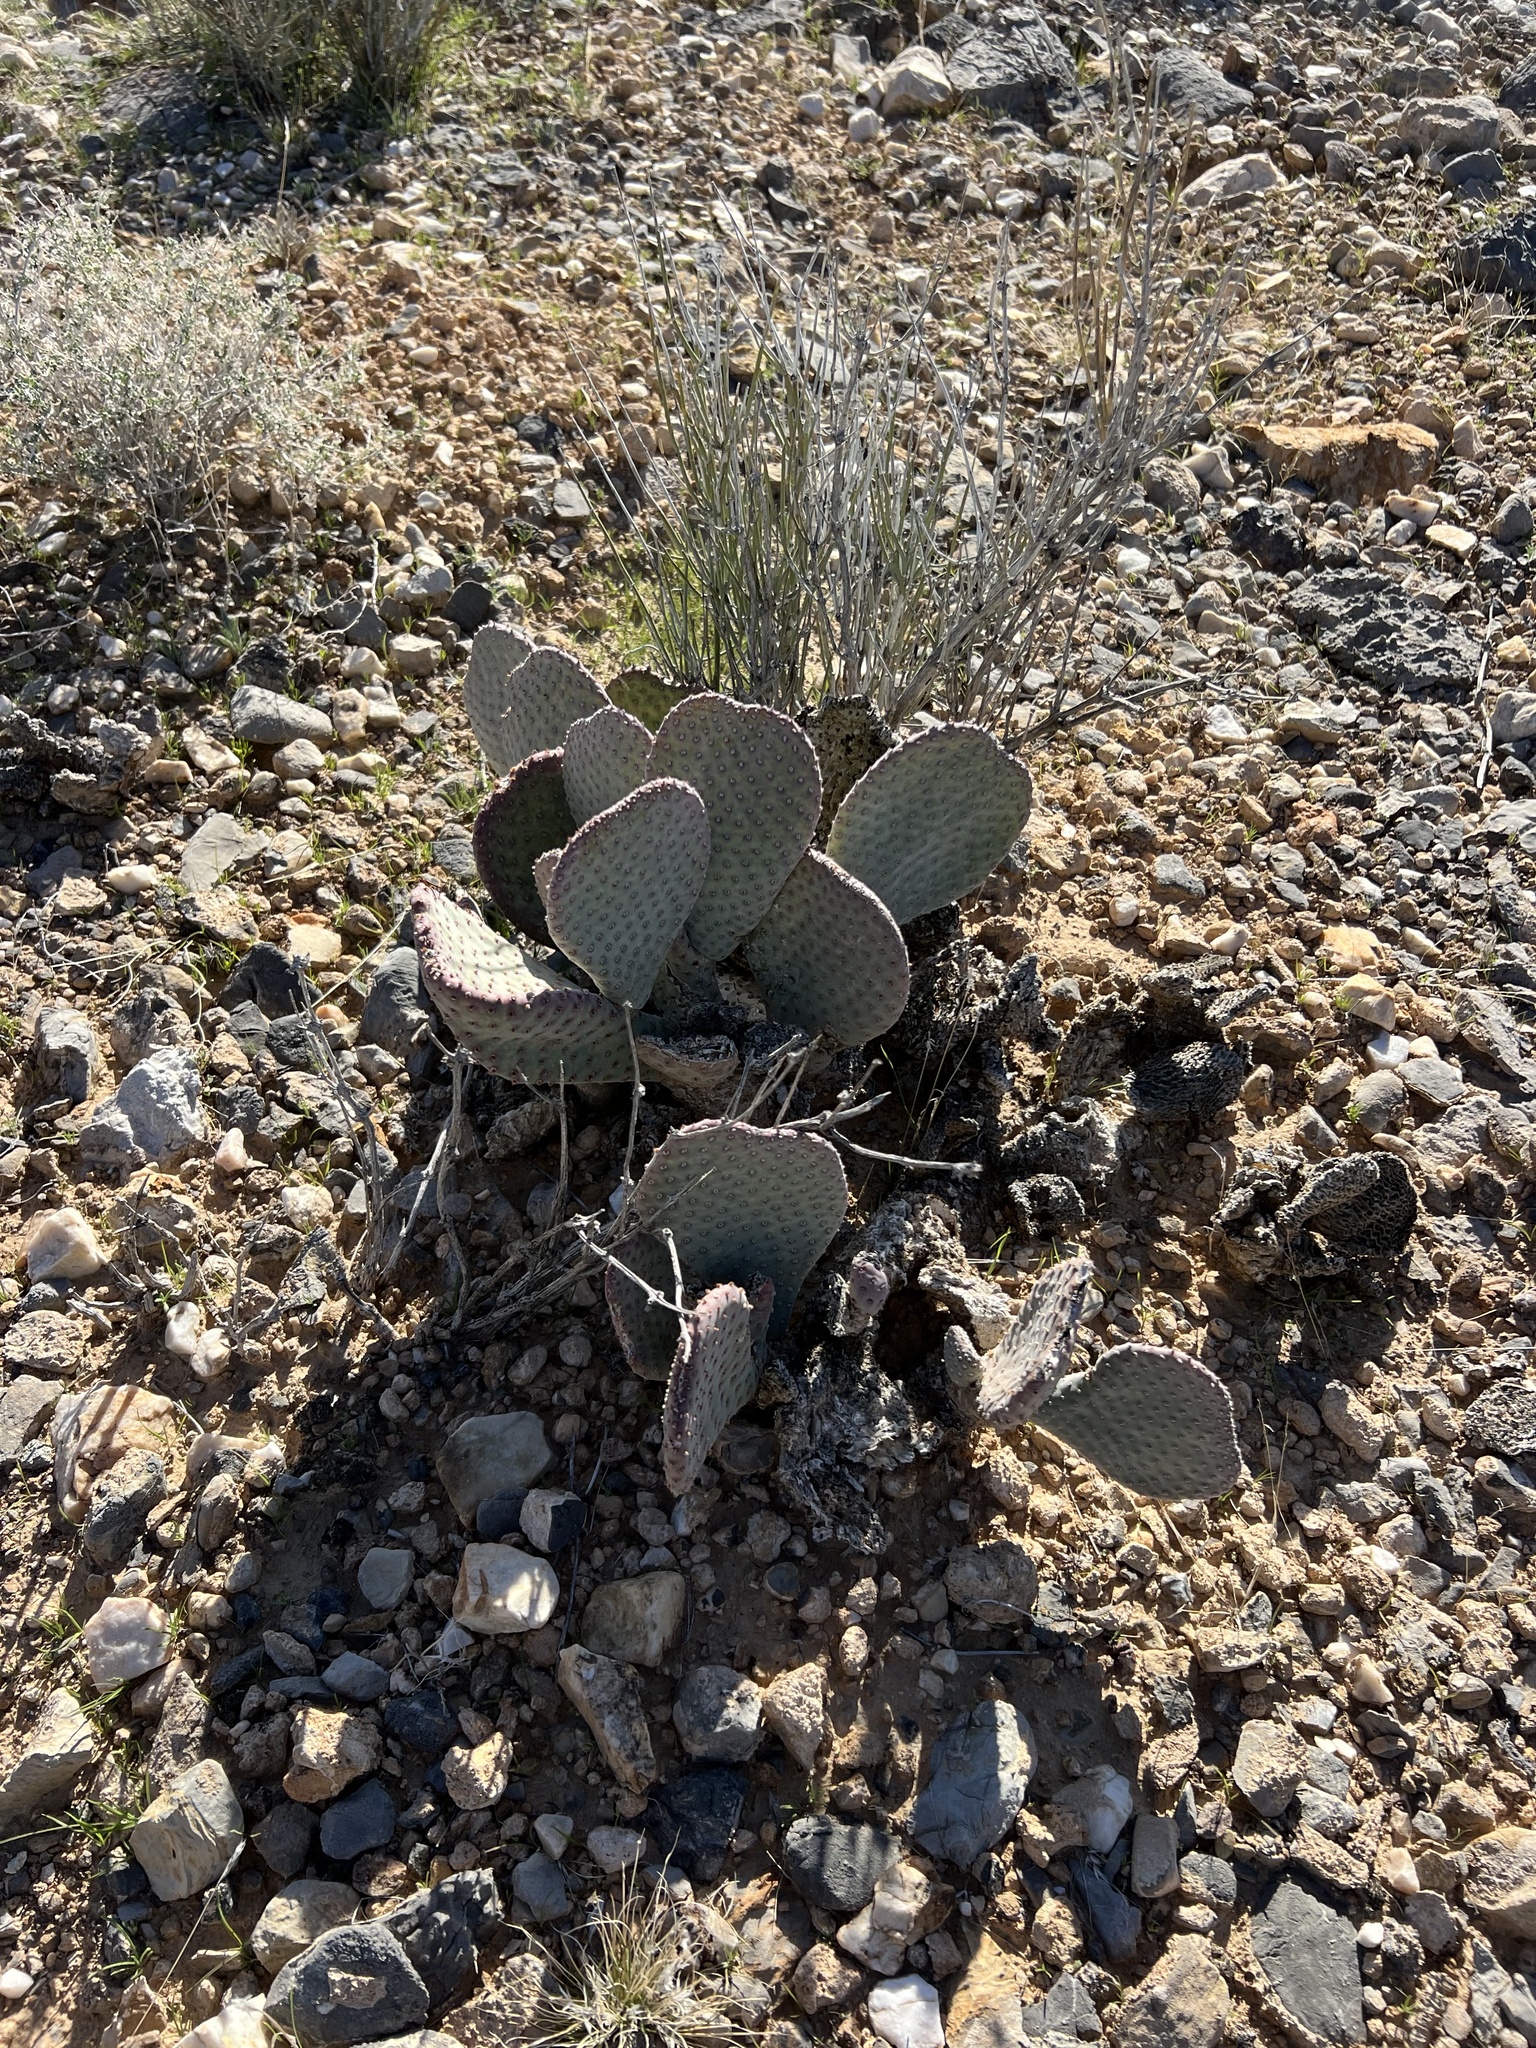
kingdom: Plantae
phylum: Tracheophyta
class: Magnoliopsida
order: Caryophyllales
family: Cactaceae
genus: Opuntia
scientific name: Opuntia basilaris
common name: Beavertail prickly-pear
